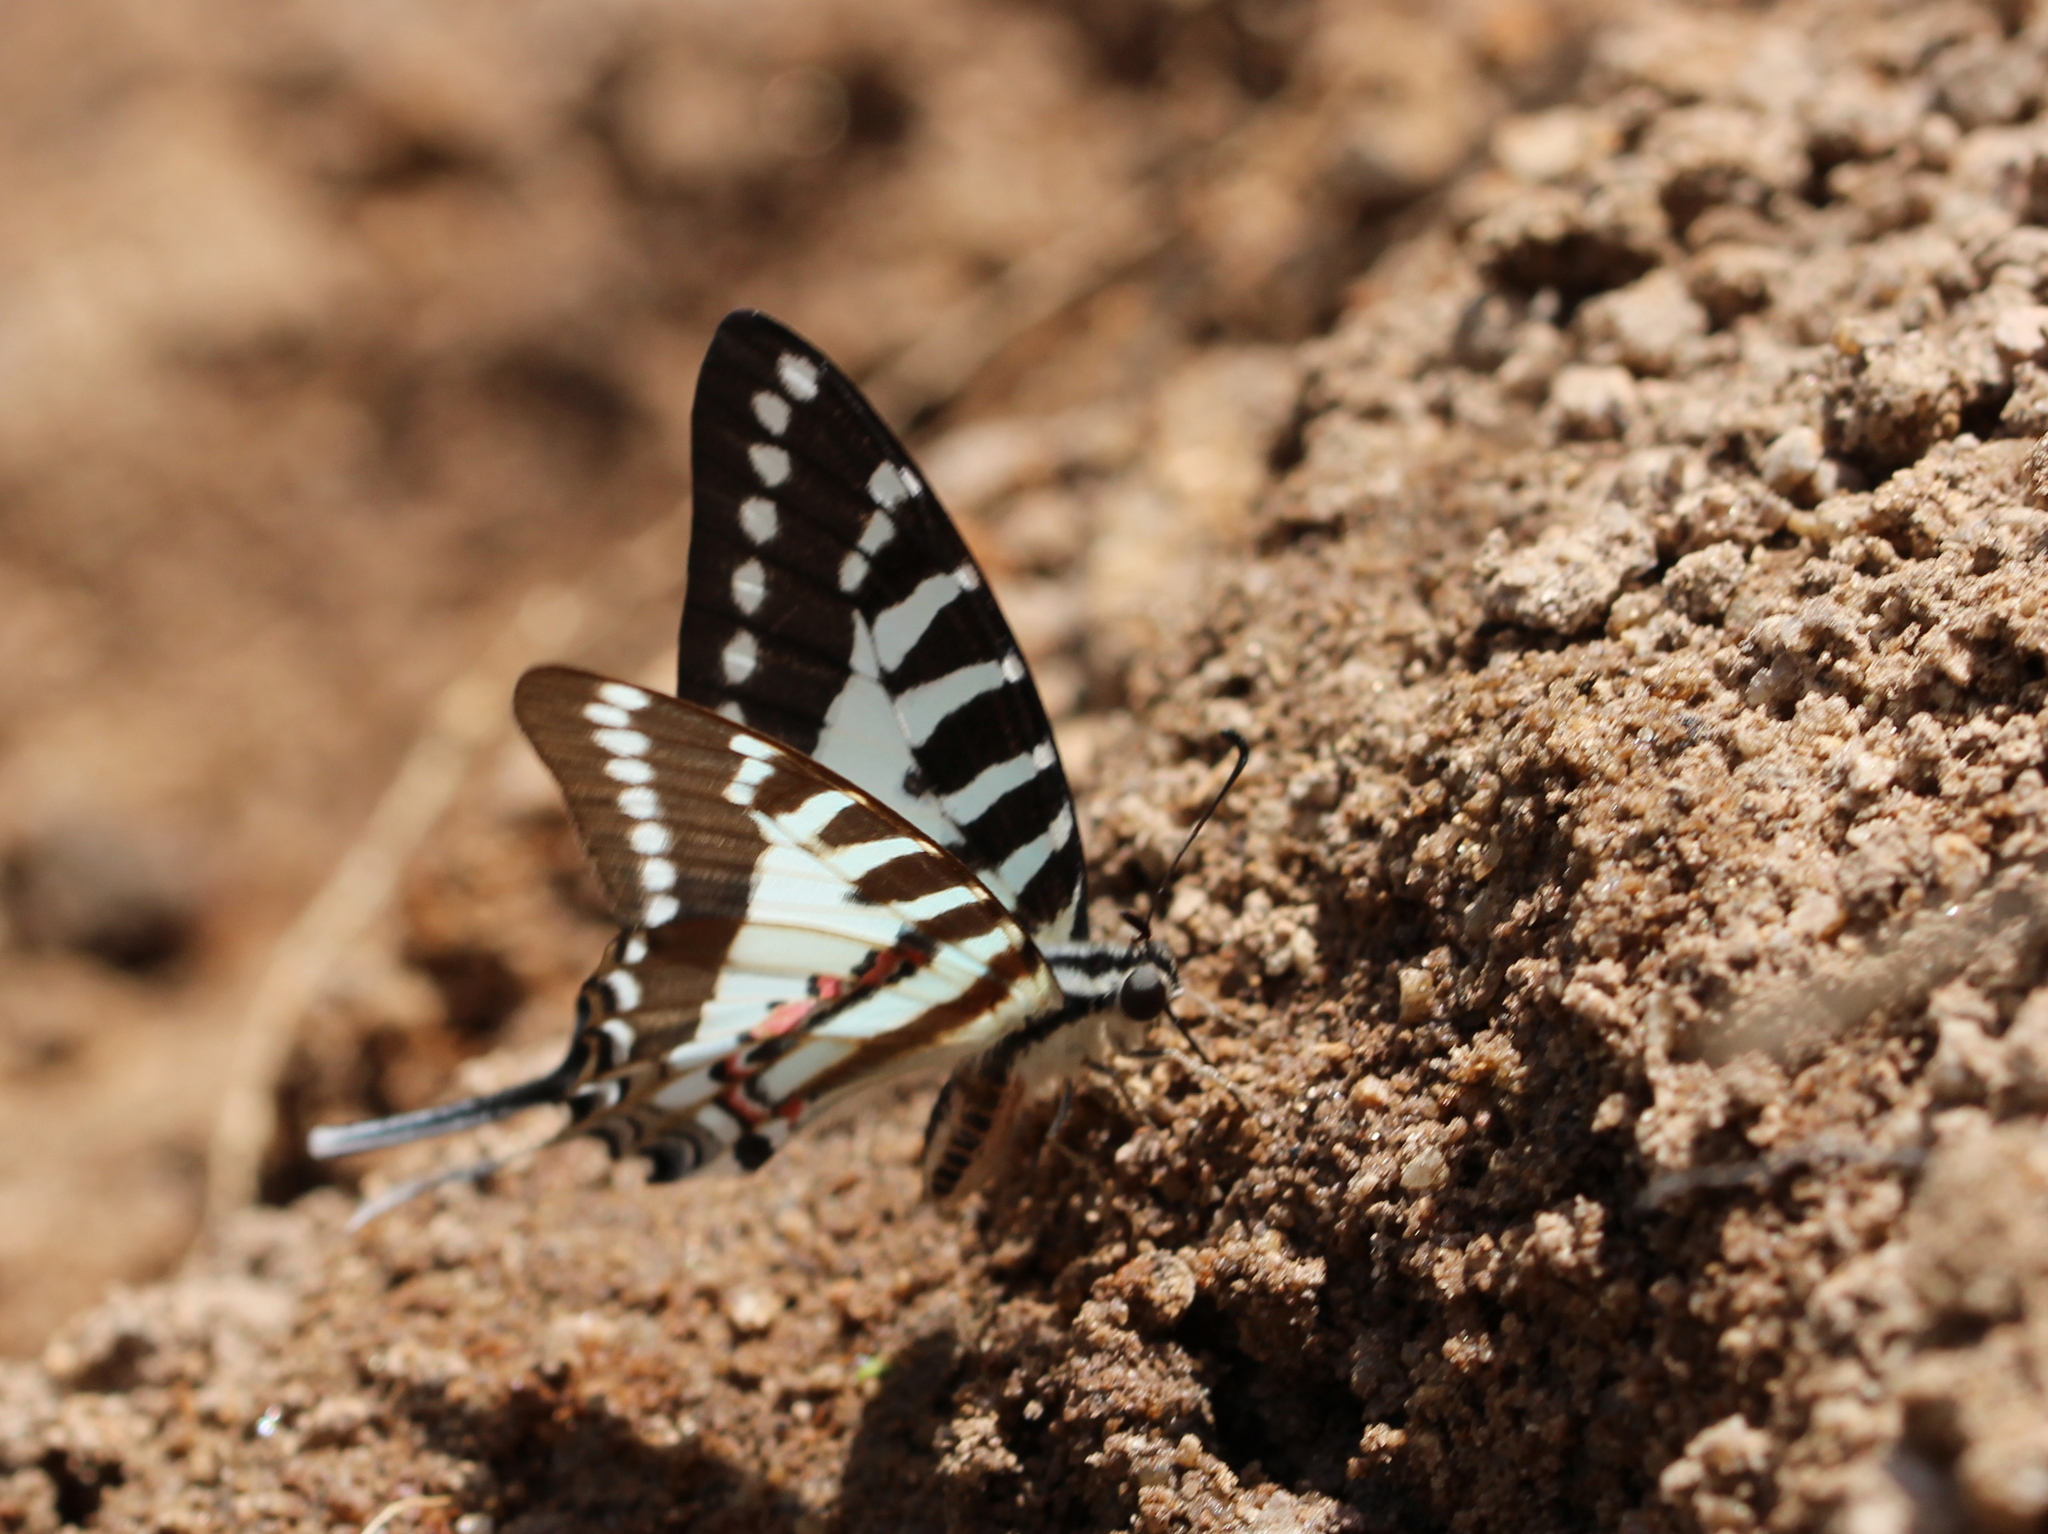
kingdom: Animalia
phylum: Arthropoda
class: Insecta
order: Lepidoptera
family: Papilionidae
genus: Graphium
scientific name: Graphium nomius
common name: Spot swordtail
